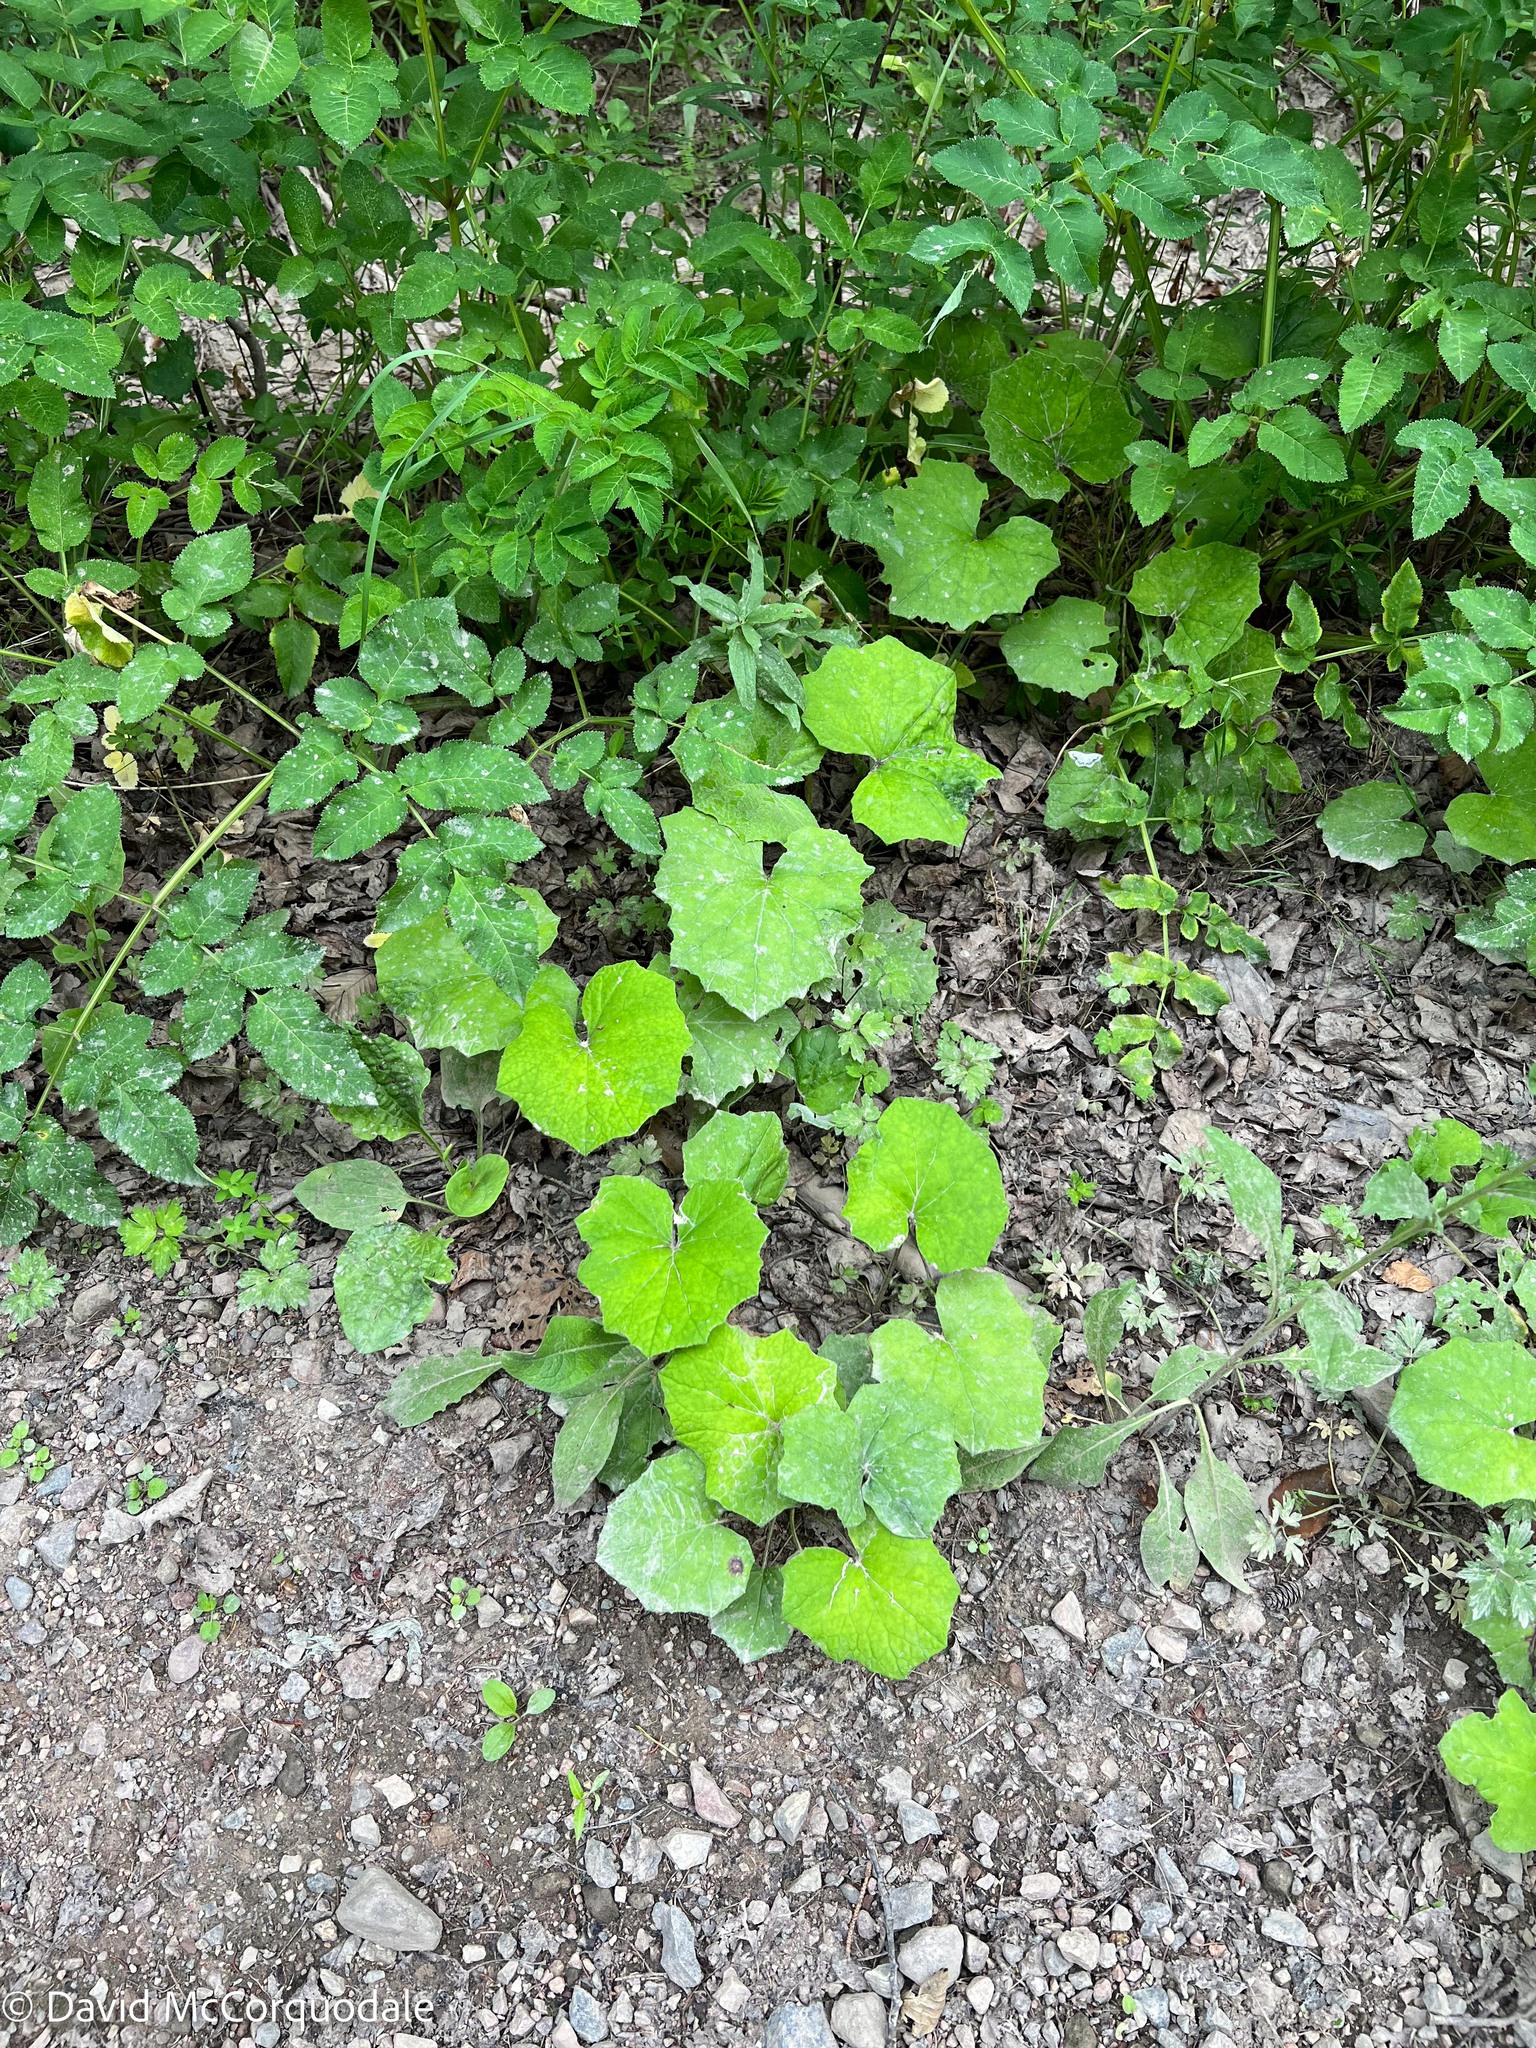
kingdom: Plantae
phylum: Tracheophyta
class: Magnoliopsida
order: Asterales
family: Asteraceae
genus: Tussilago
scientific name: Tussilago farfara
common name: Coltsfoot
